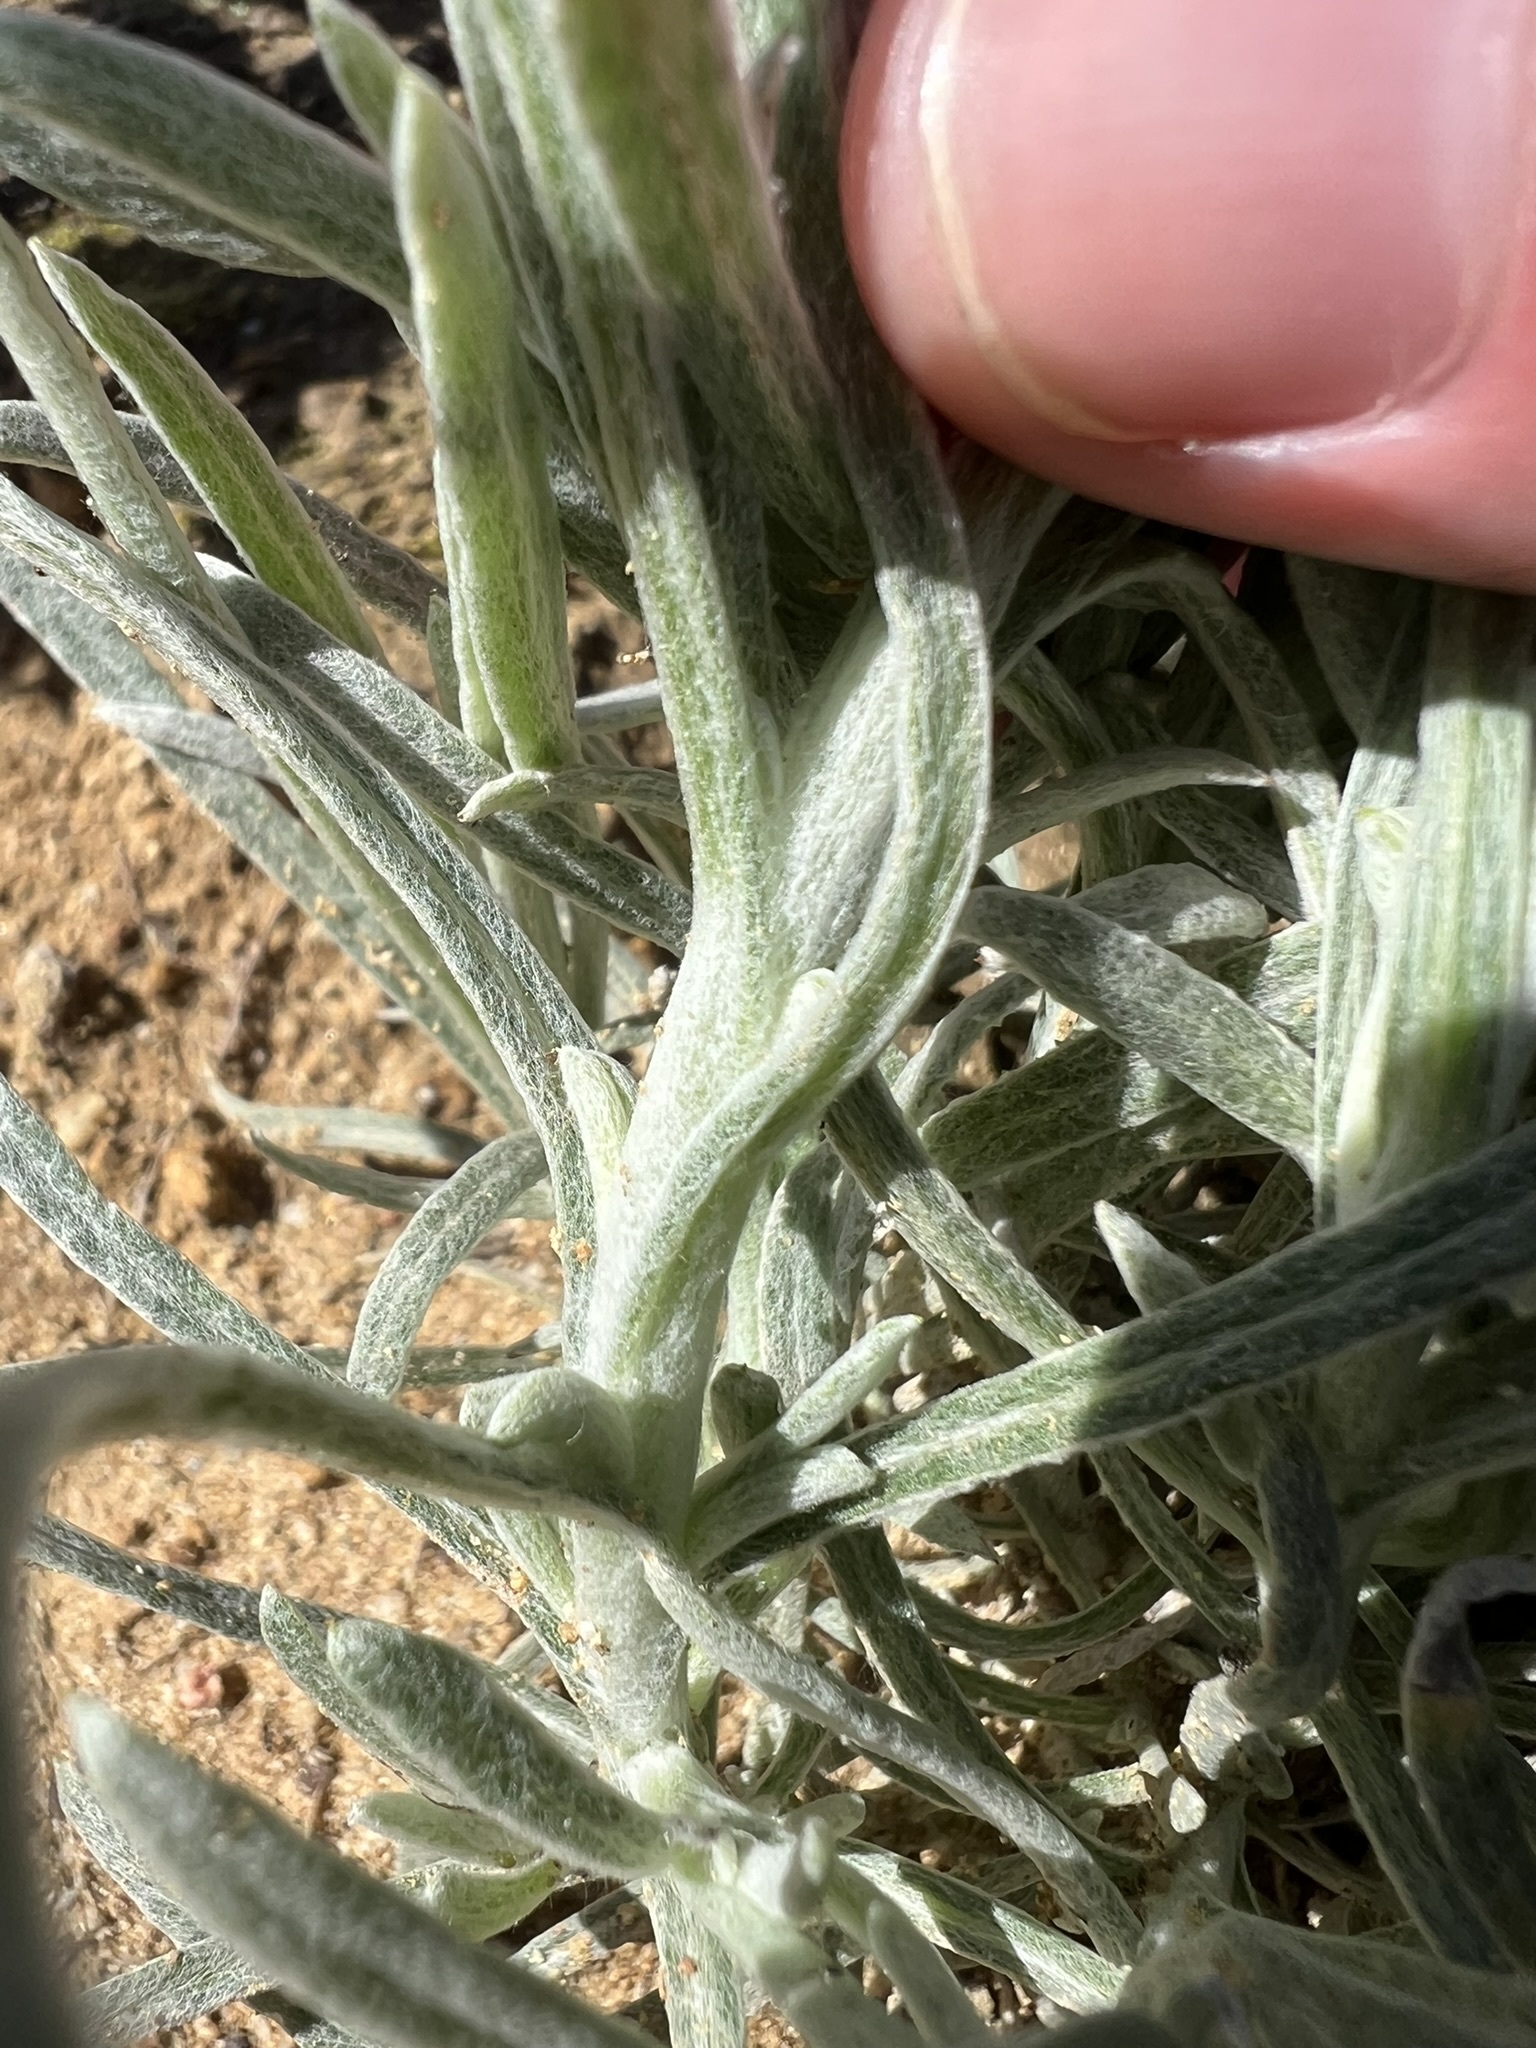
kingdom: Plantae
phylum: Tracheophyta
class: Magnoliopsida
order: Asterales
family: Asteraceae
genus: Pseudognaphalium
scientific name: Pseudognaphalium beneolens
